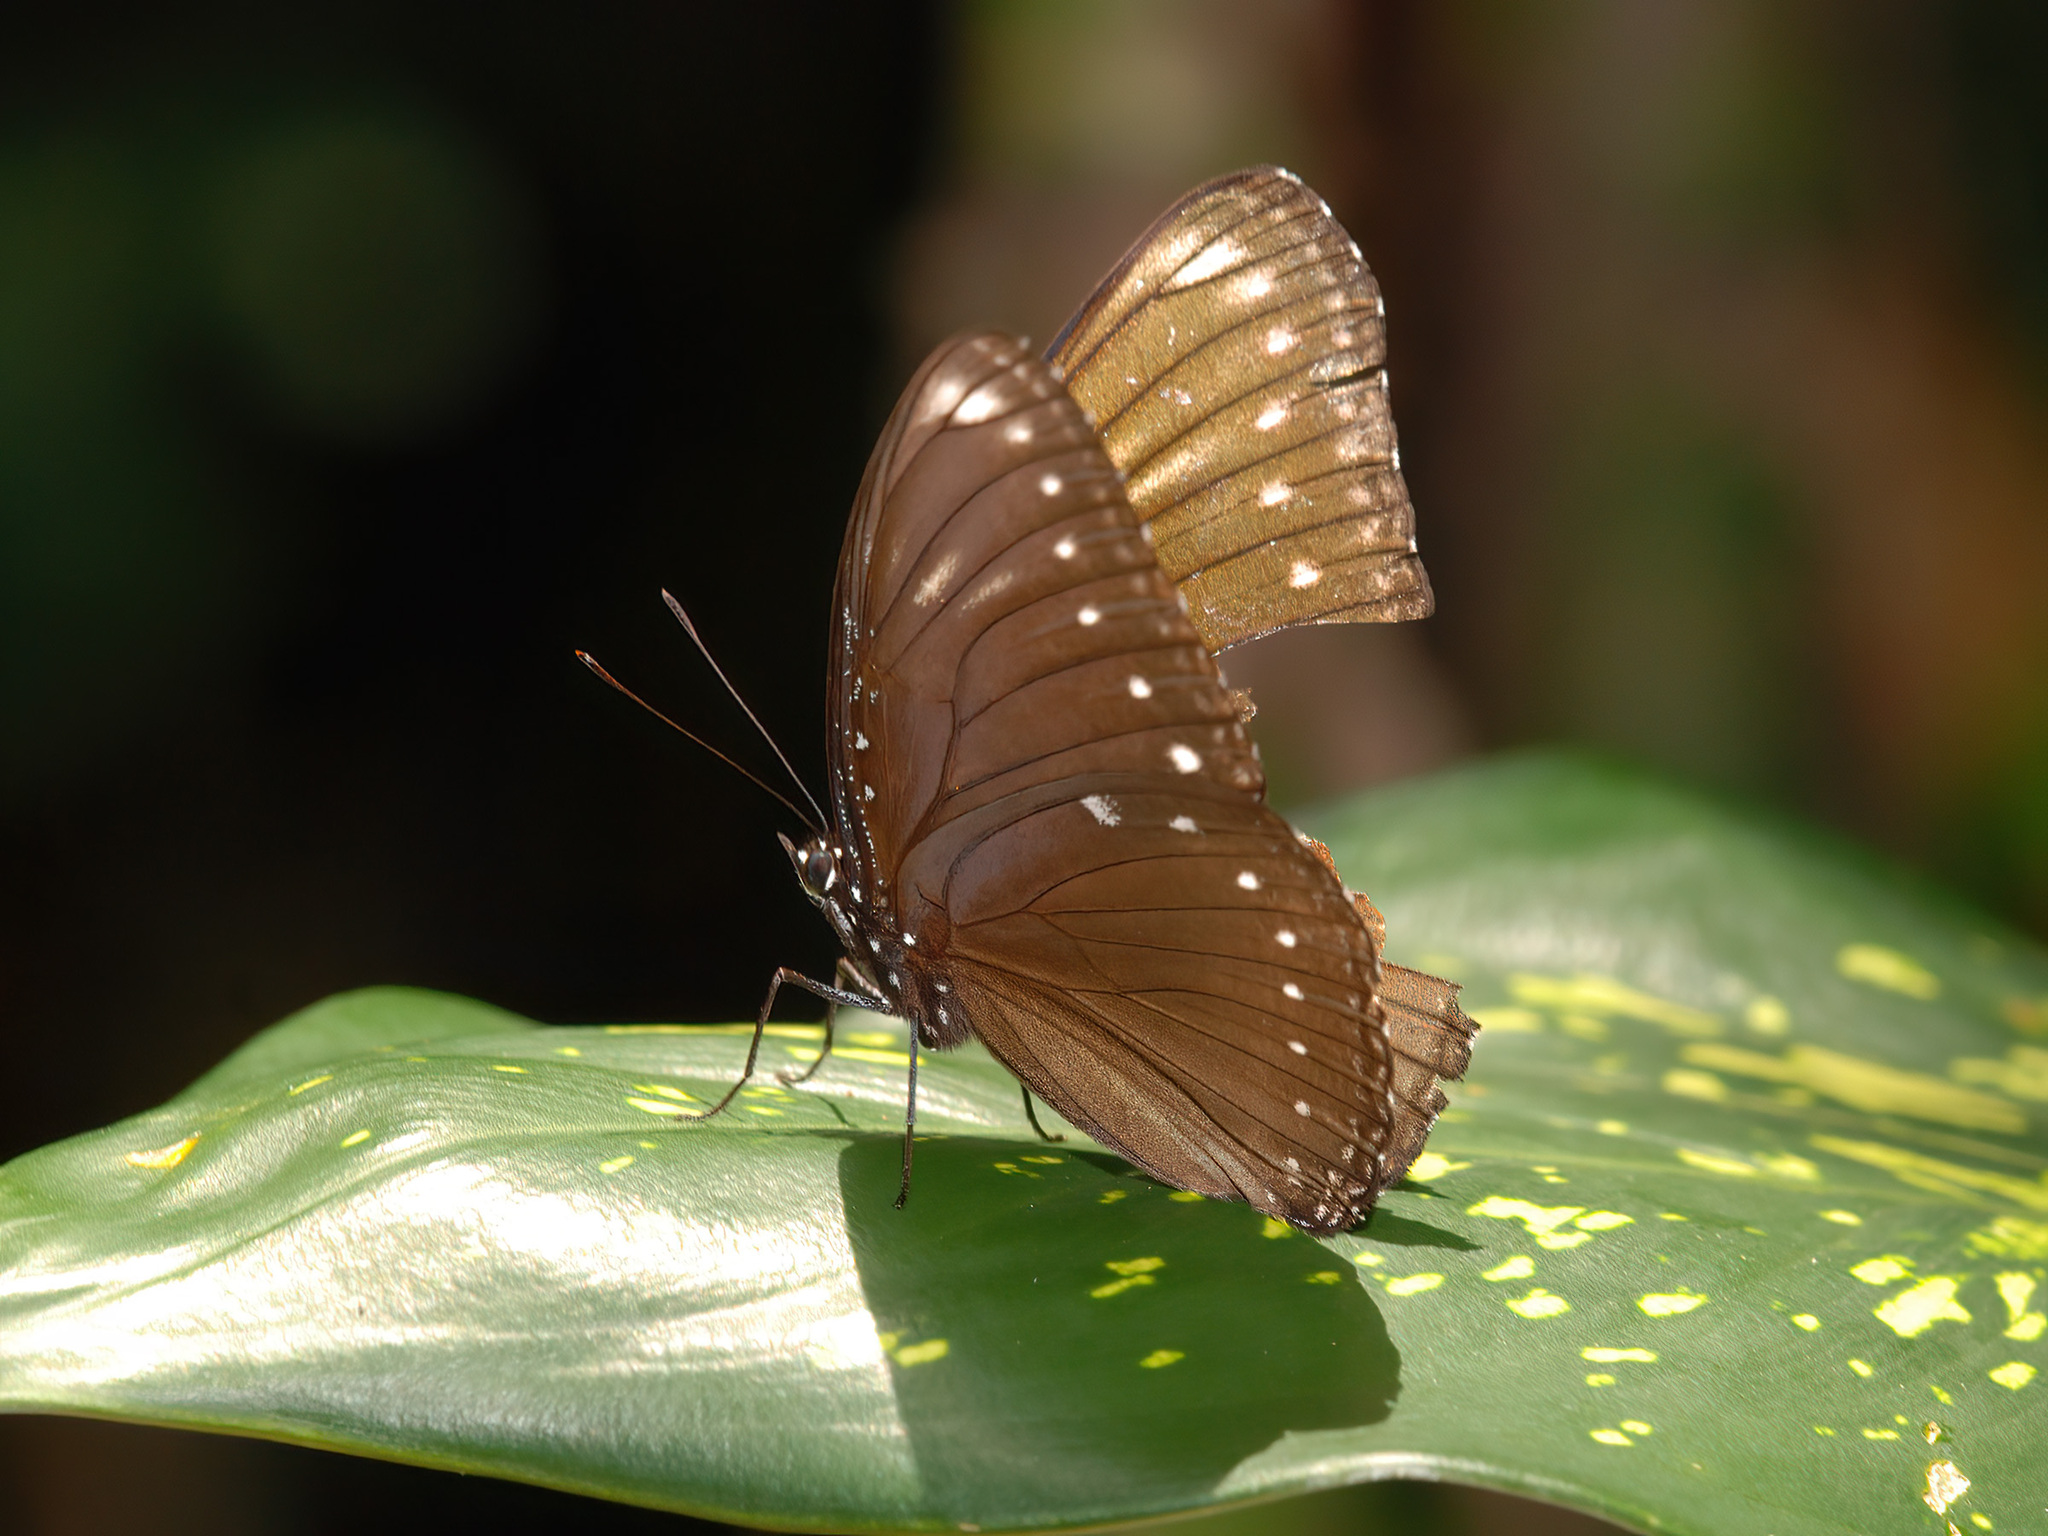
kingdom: Animalia
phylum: Arthropoda
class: Insecta
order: Lepidoptera
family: Nymphalidae
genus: Hypolimnas
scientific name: Hypolimnas anomala
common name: Malayan eggfly
